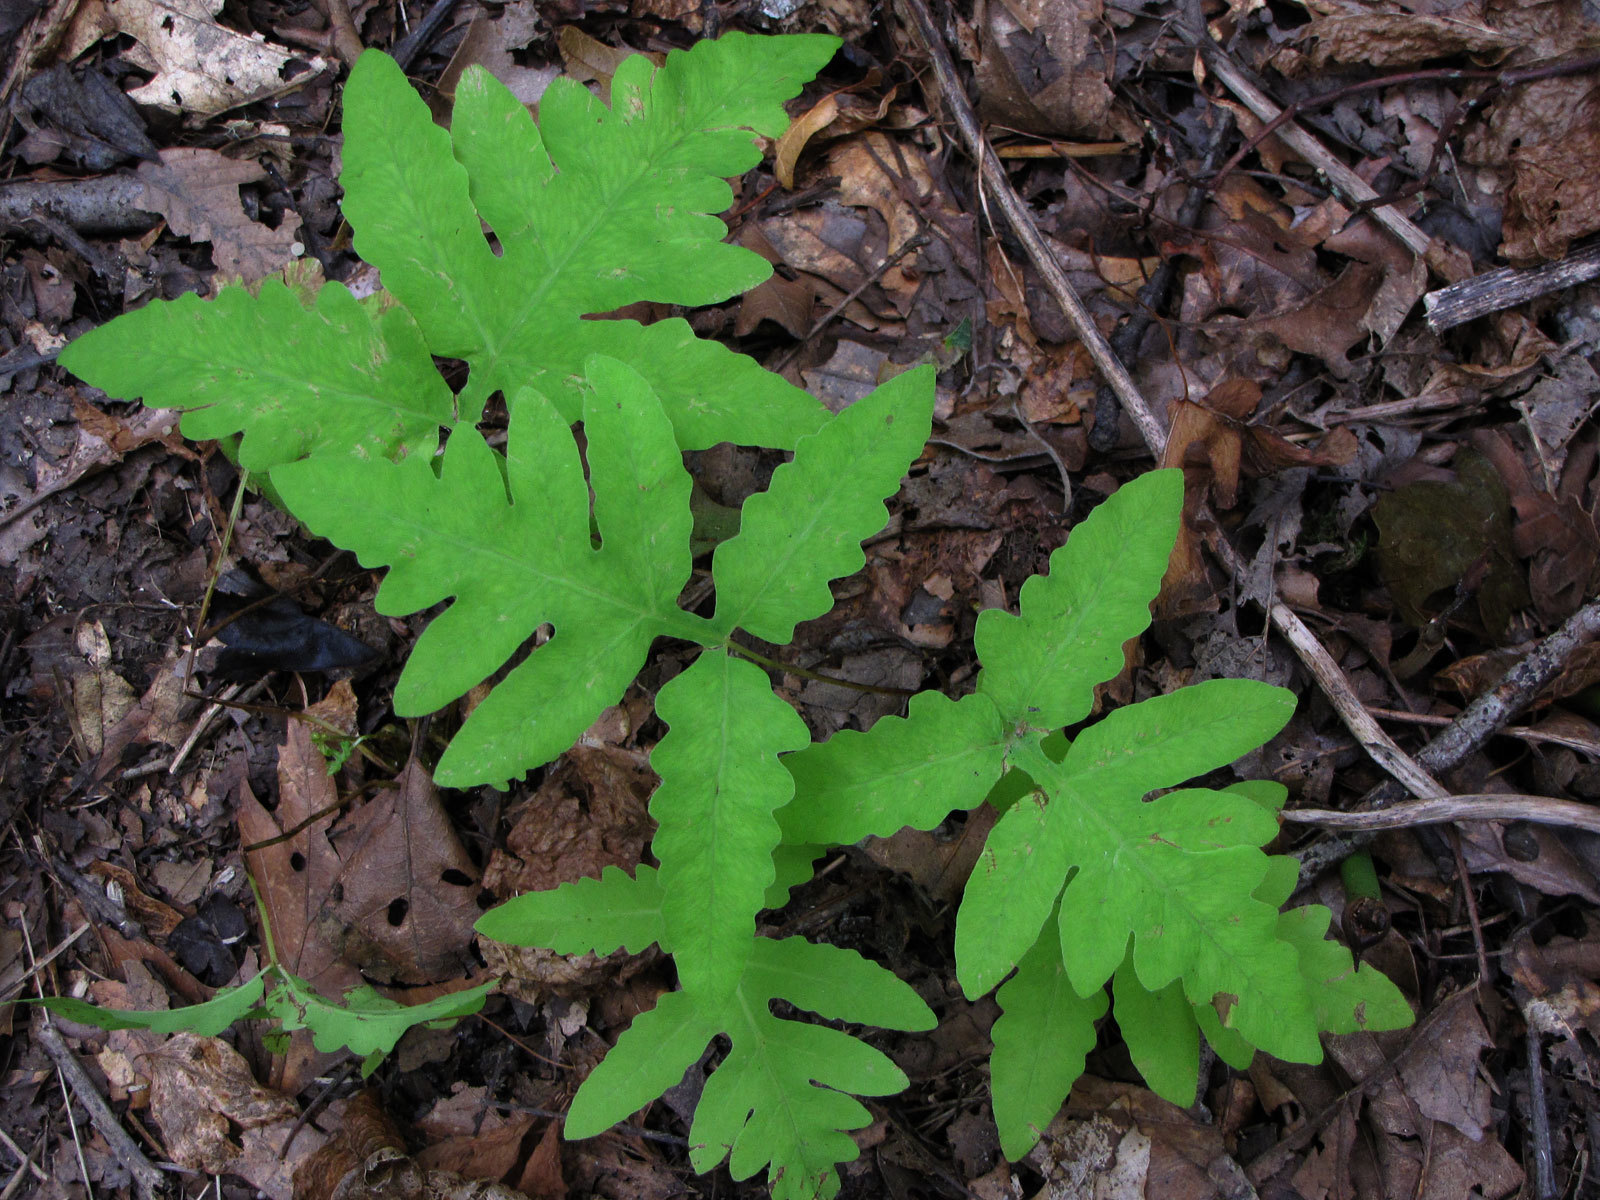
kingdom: Plantae
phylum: Tracheophyta
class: Polypodiopsida
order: Polypodiales
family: Onocleaceae
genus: Onoclea
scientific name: Onoclea sensibilis
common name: Sensitive fern
